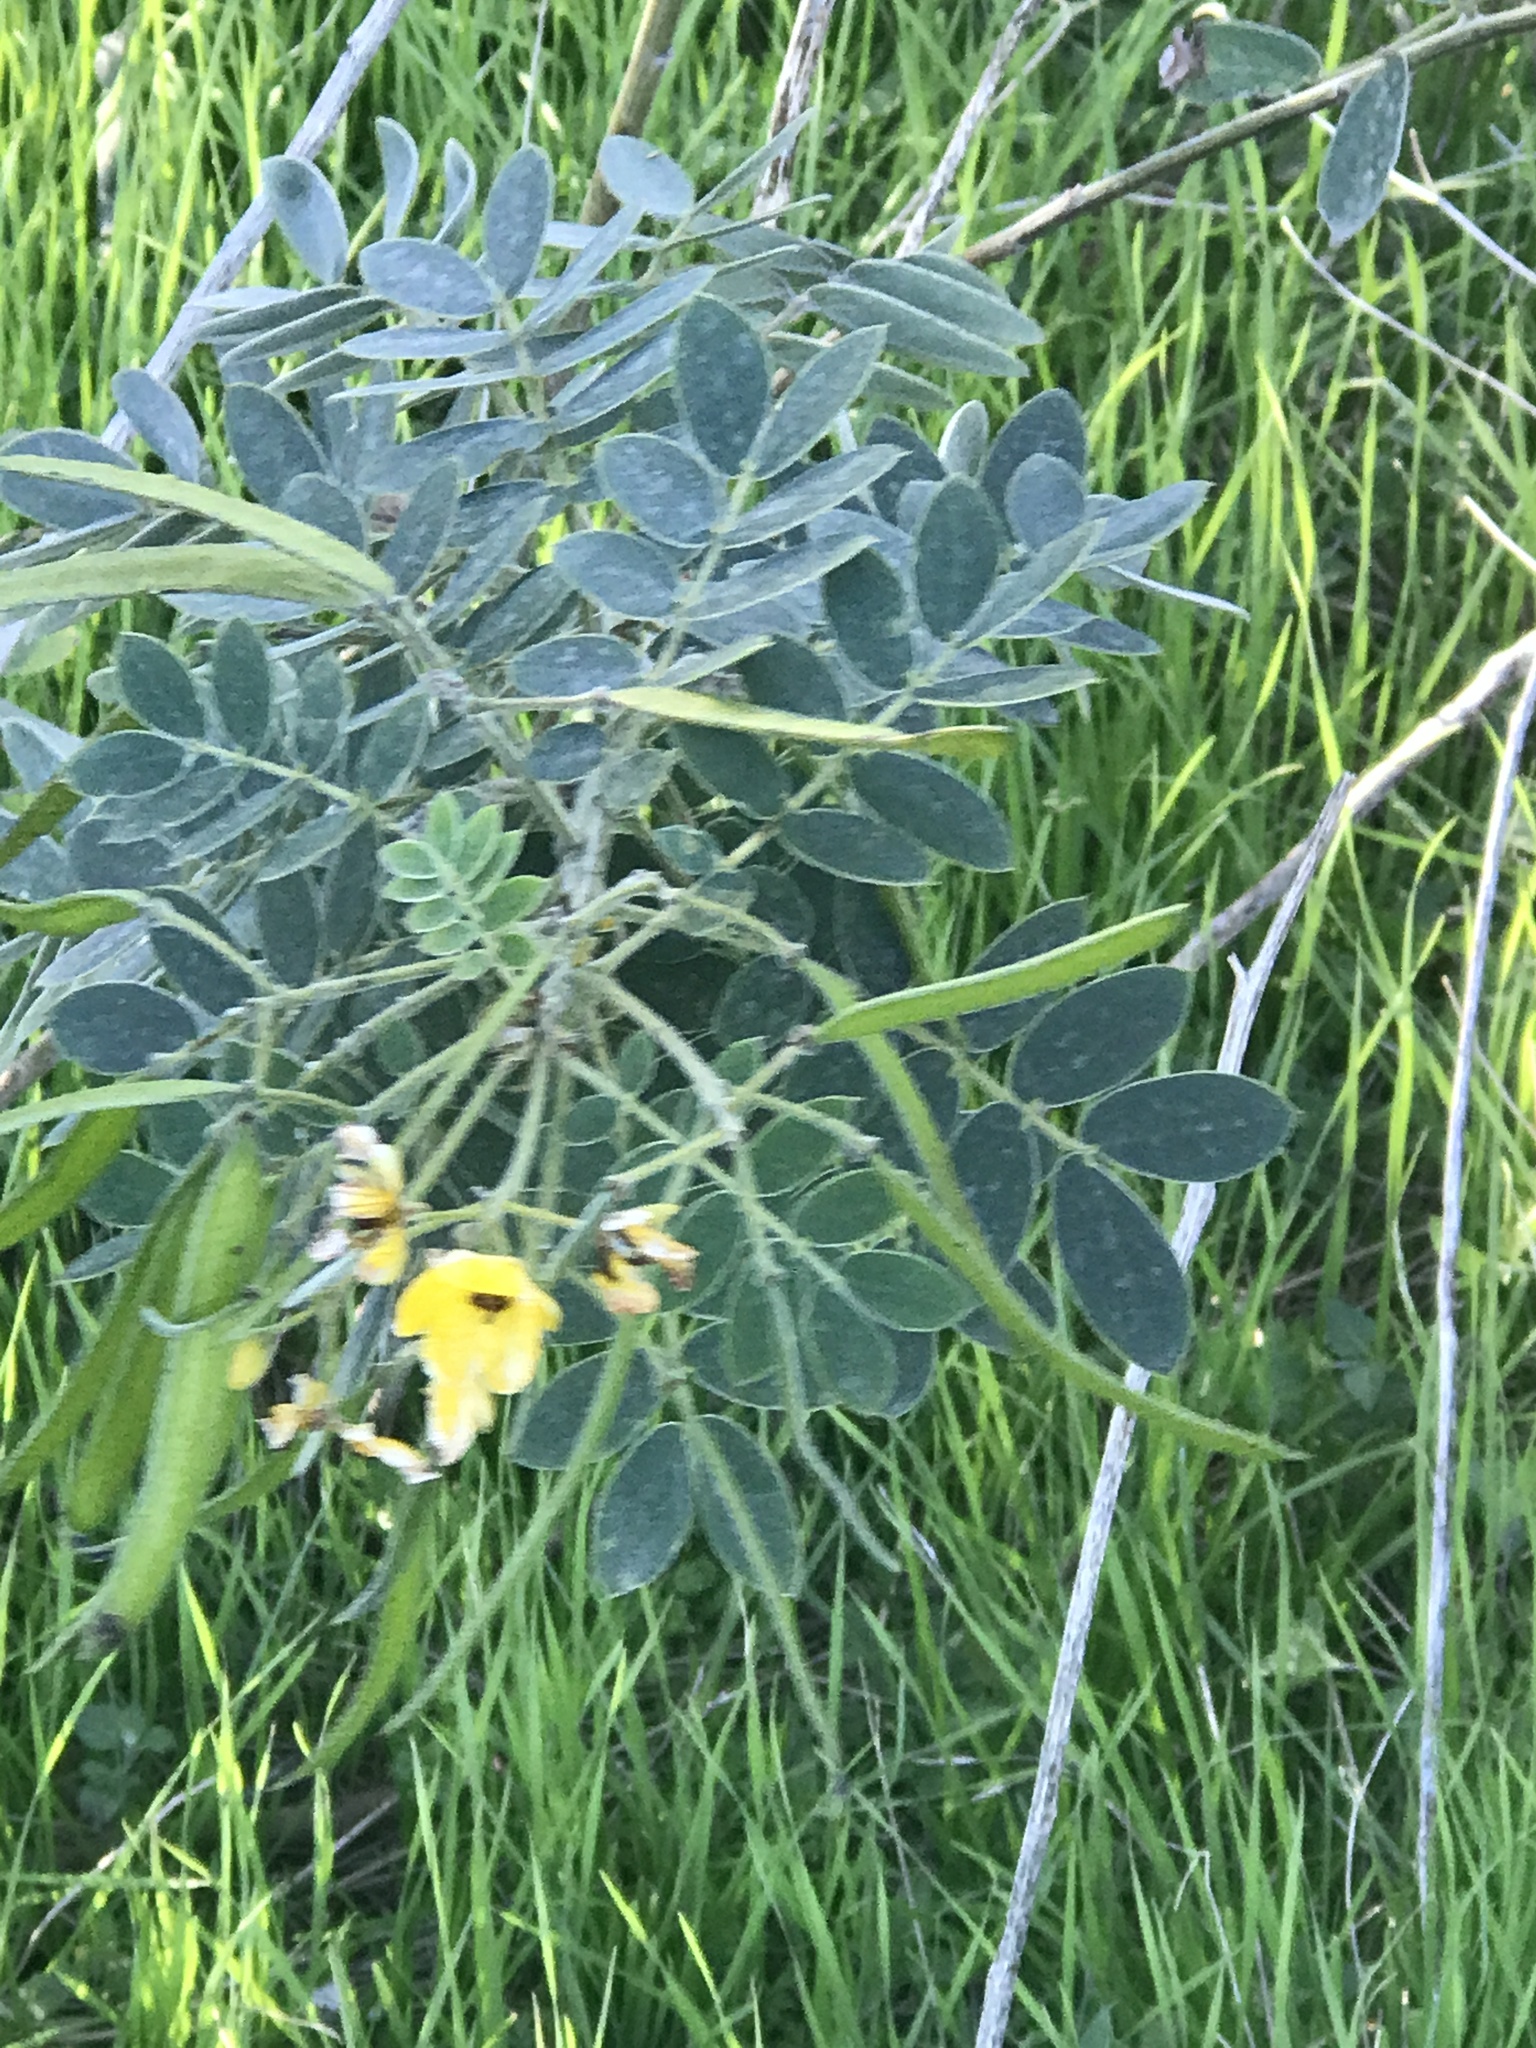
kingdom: Plantae
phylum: Tracheophyta
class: Magnoliopsida
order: Fabales
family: Fabaceae
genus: Senna
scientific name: Senna lindheimeriana
